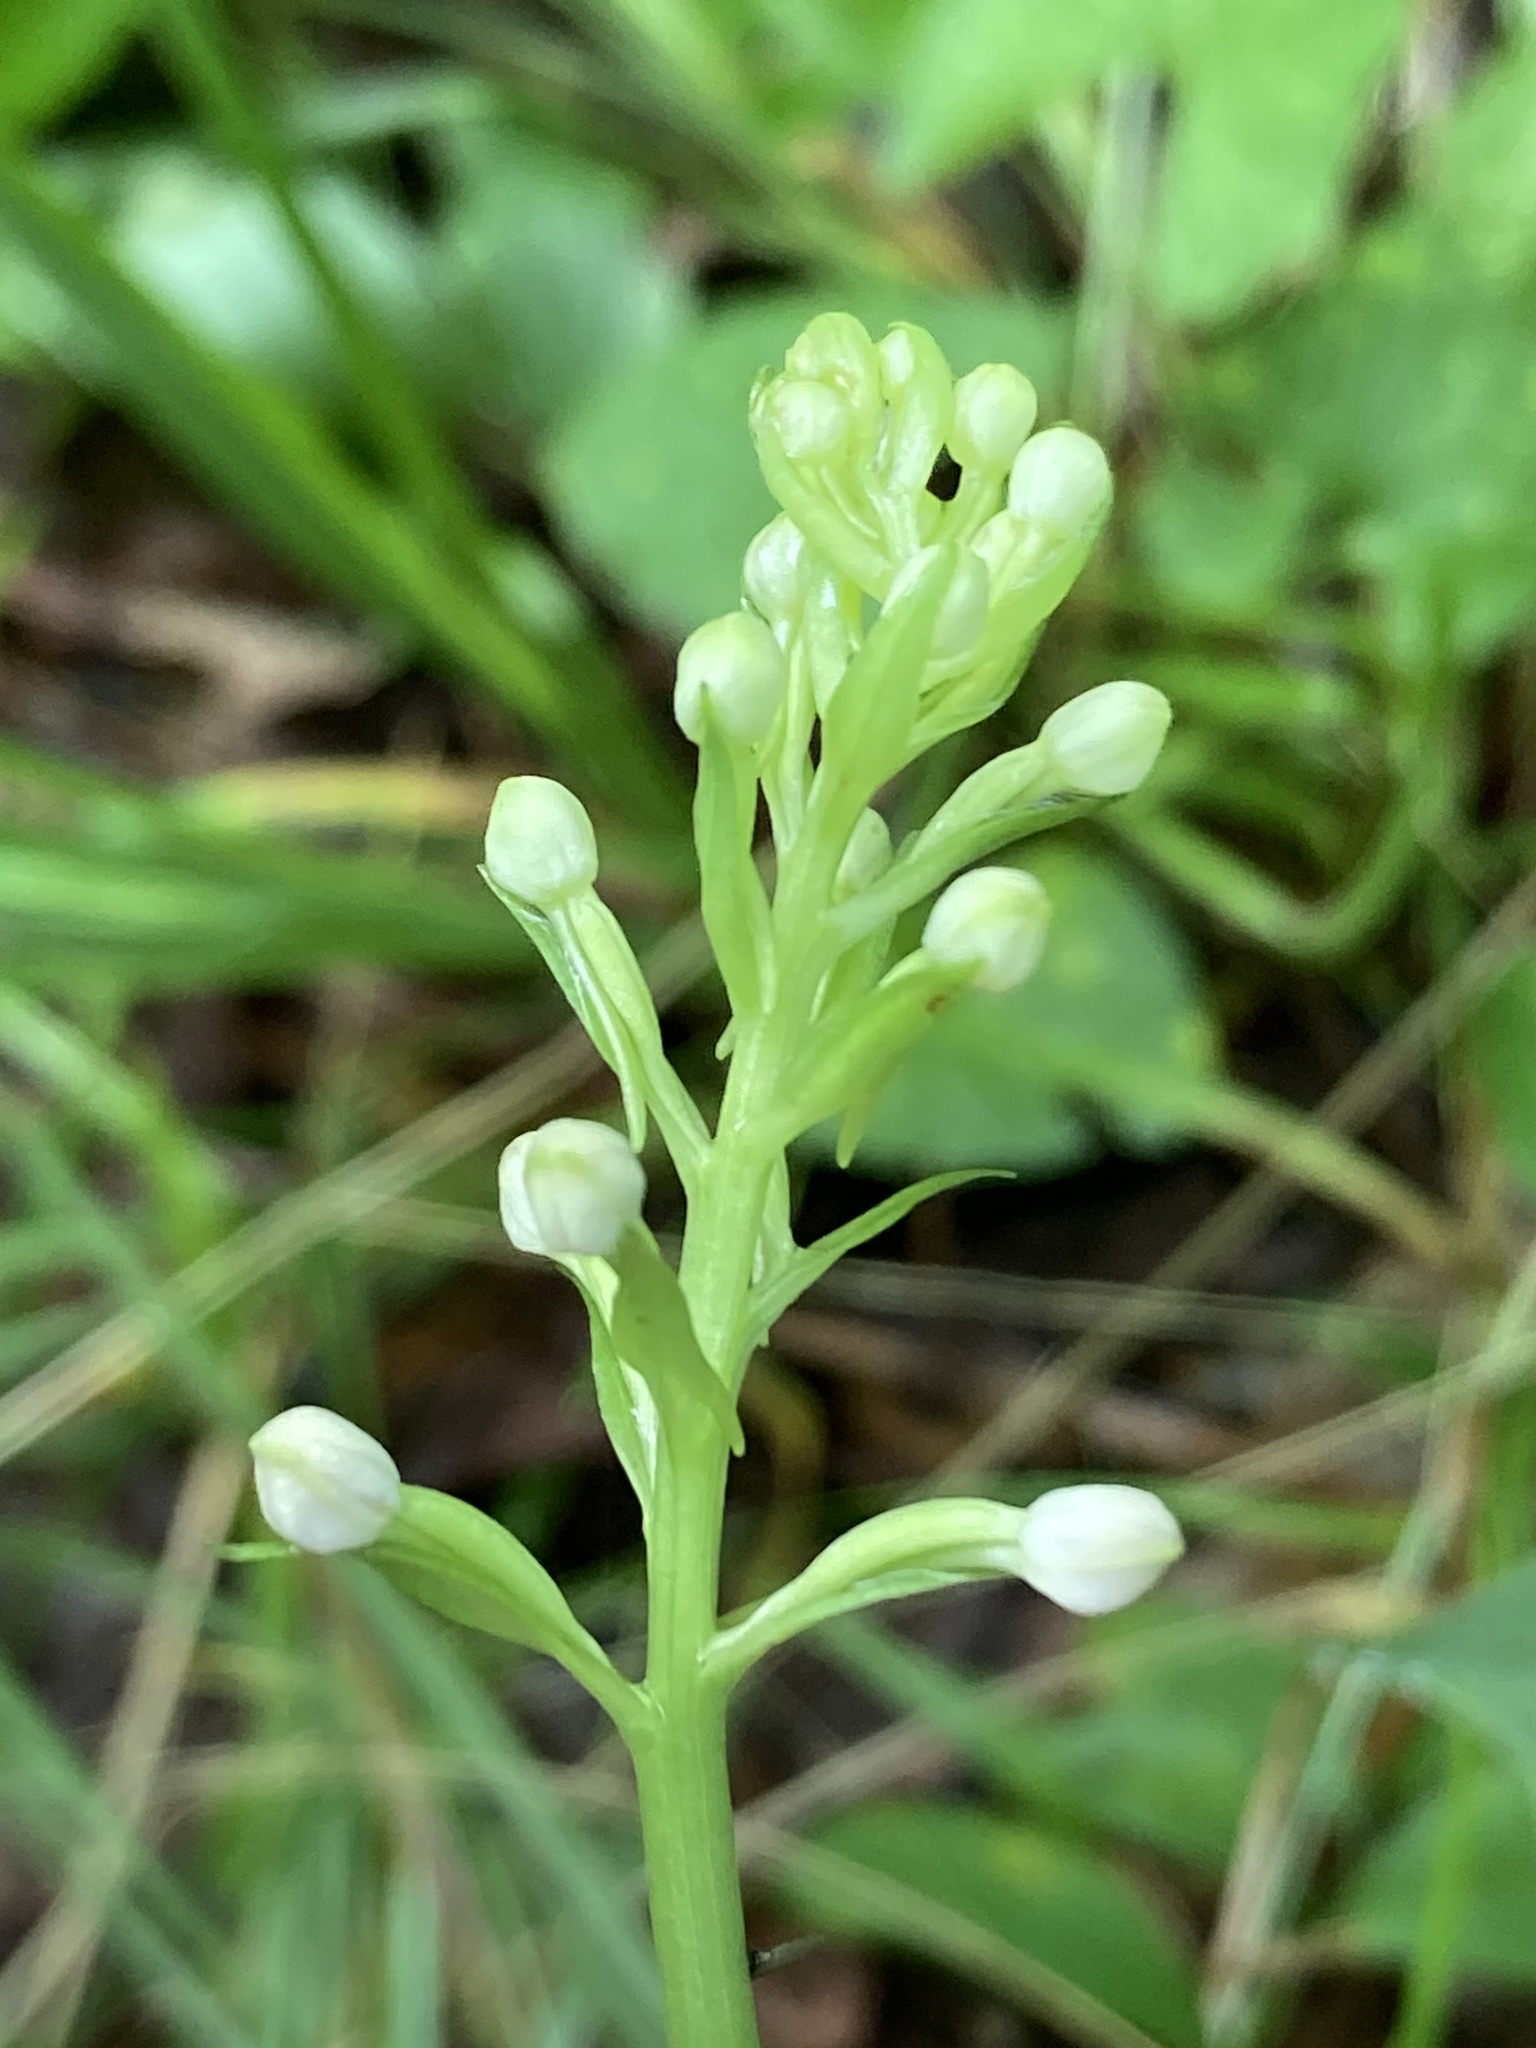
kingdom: Plantae
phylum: Tracheophyta
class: Liliopsida
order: Asparagales
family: Orchidaceae
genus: Platanthera
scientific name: Platanthera psycodes
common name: Lesser purple fringed orchid
